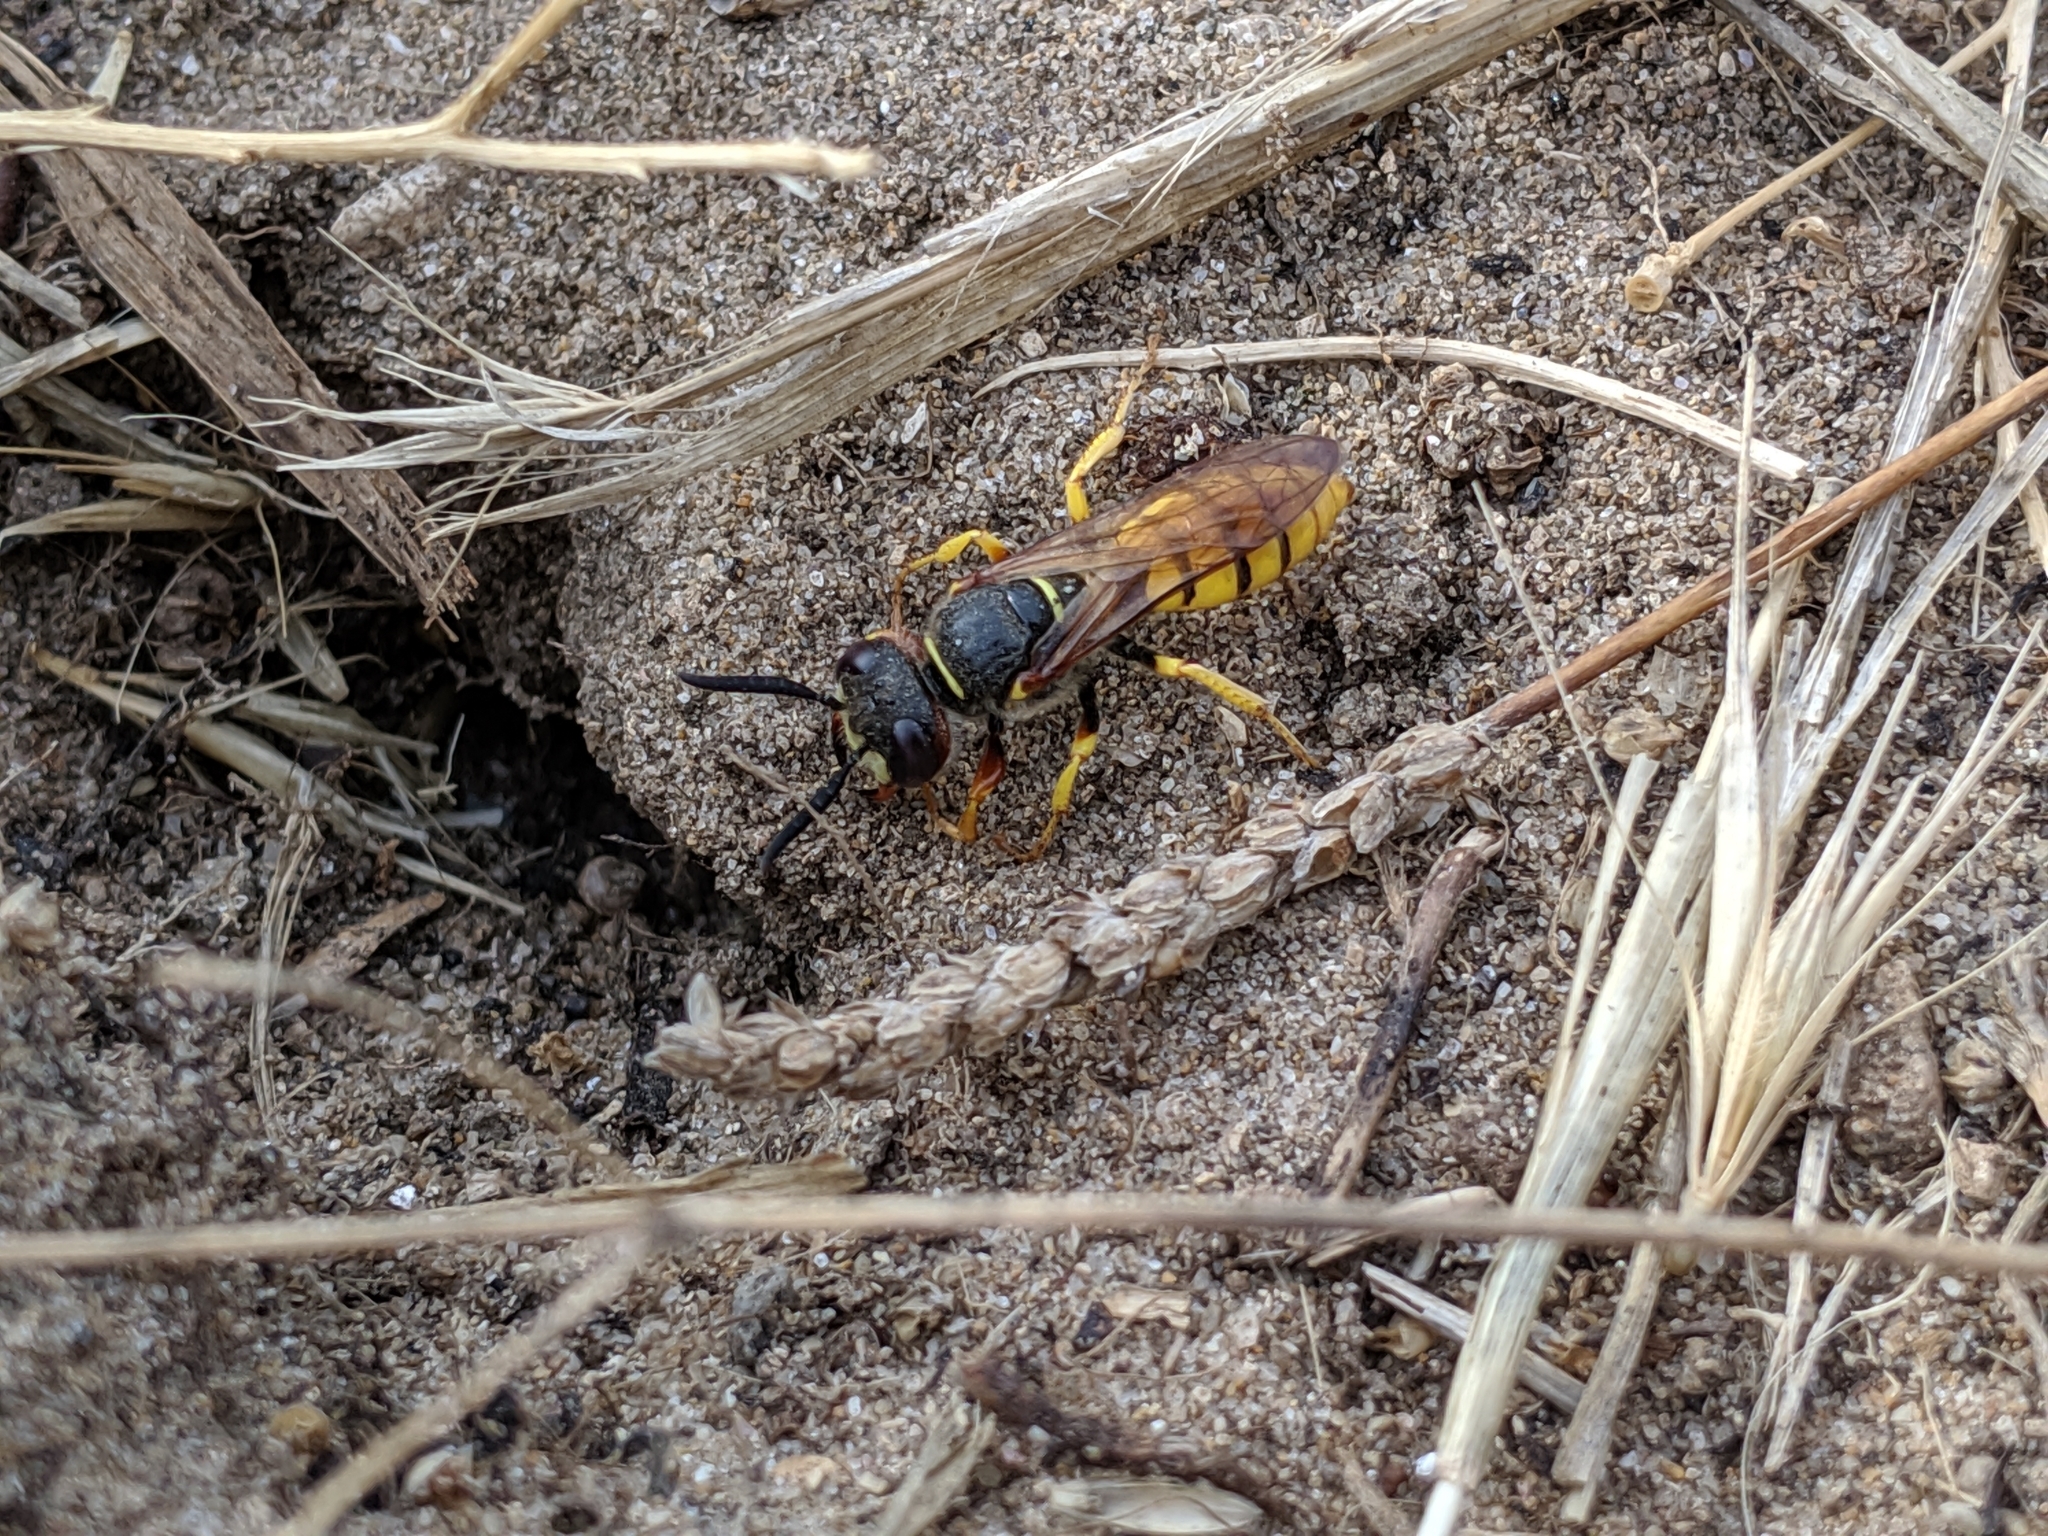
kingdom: Animalia
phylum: Arthropoda
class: Insecta
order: Hymenoptera
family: Crabronidae
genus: Philanthus
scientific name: Philanthus triangulum
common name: Bee wolf
